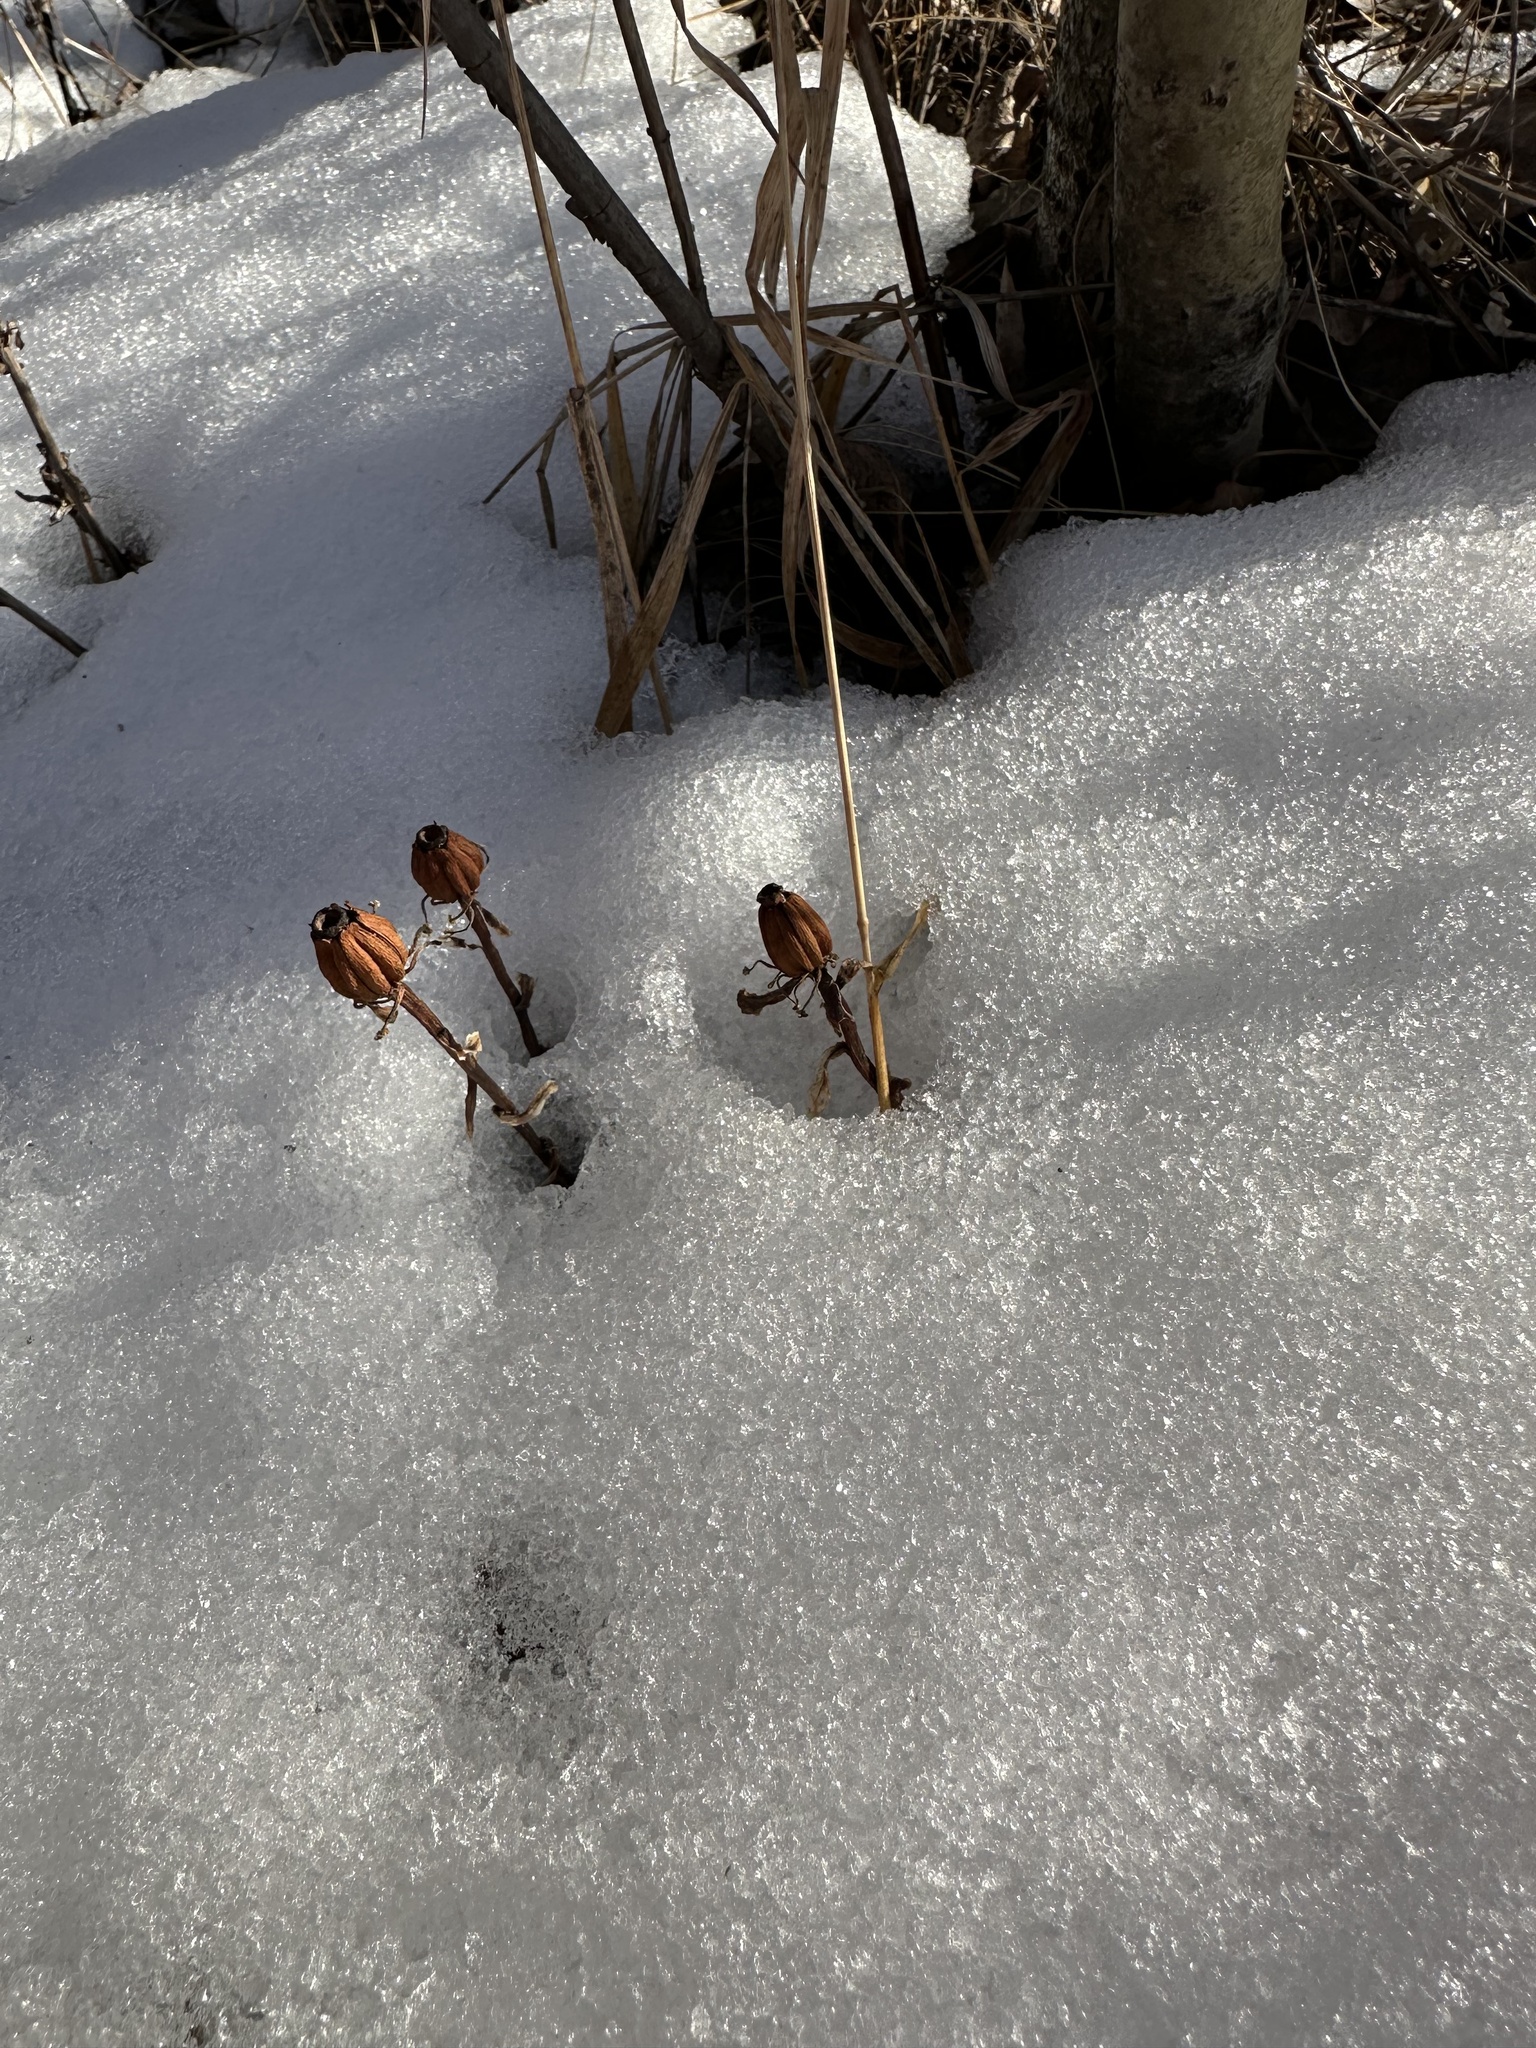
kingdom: Plantae
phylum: Tracheophyta
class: Magnoliopsida
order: Ericales
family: Ericaceae
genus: Monotropa
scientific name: Monotropa uniflora
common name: Convulsion root
